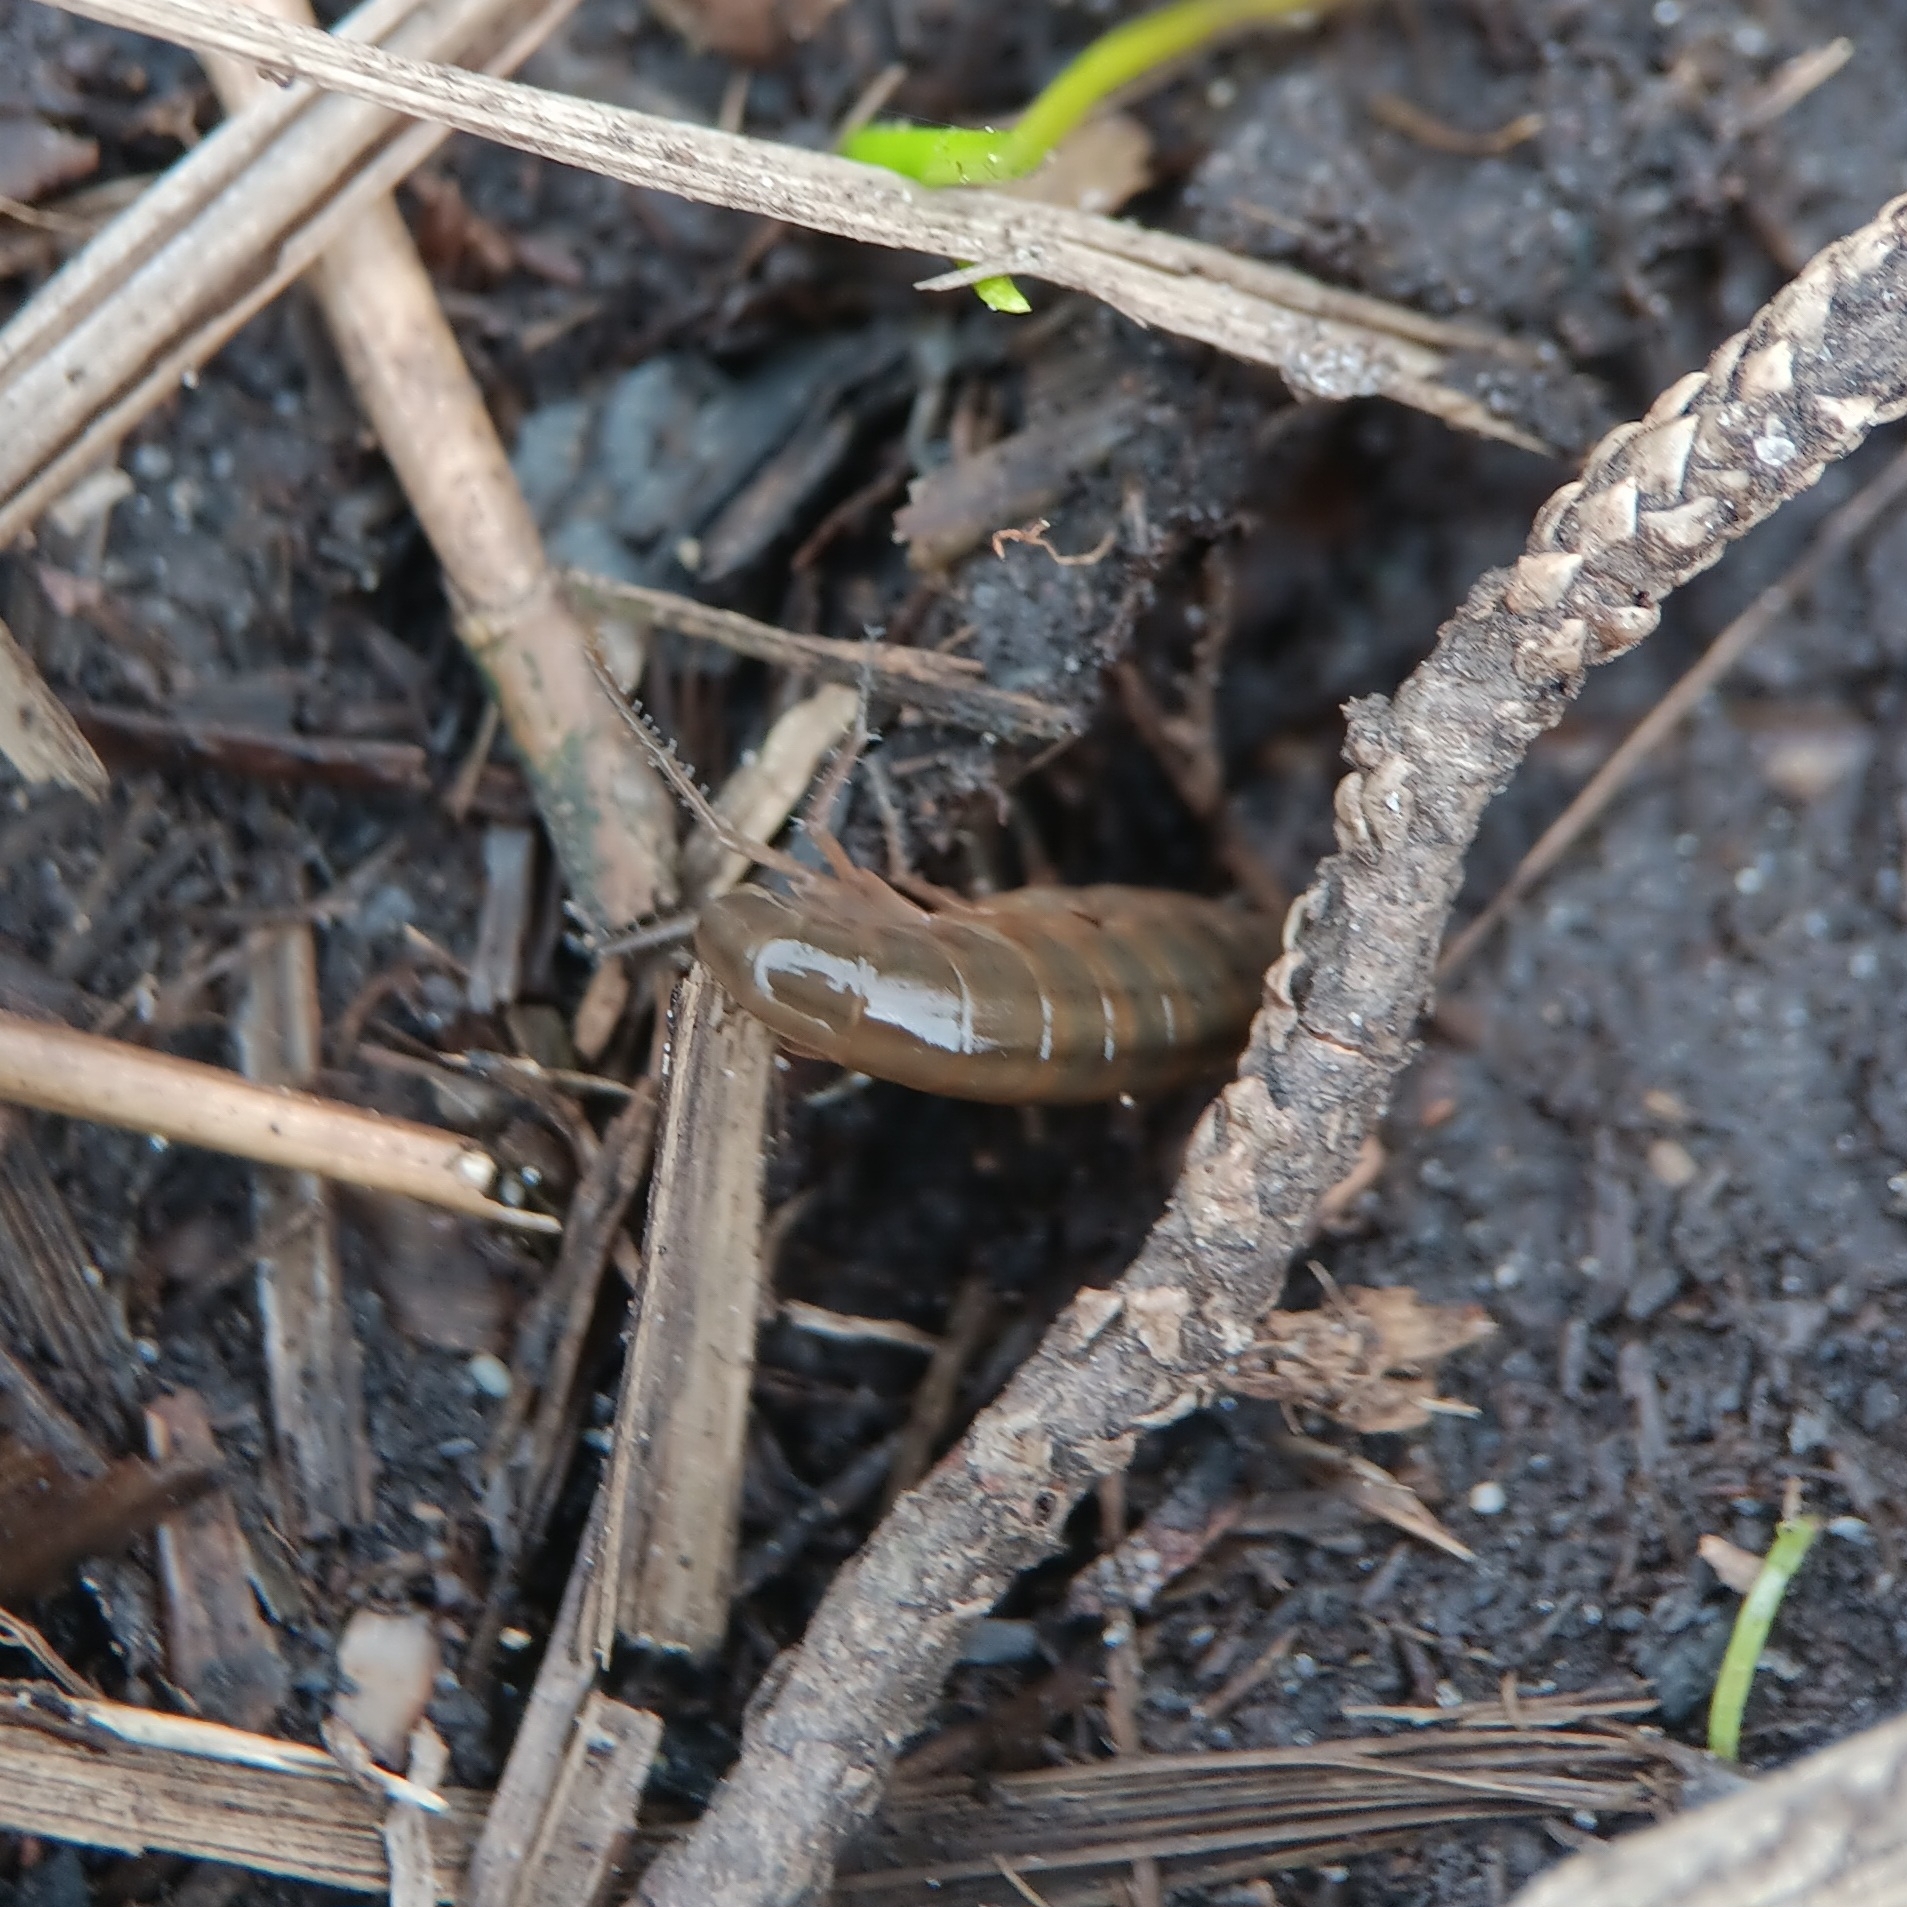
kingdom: Animalia
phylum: Arthropoda
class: Malacostraca
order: Amphipoda
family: Talitridae
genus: Speziorchestia
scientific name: Speziorchestia grillus
